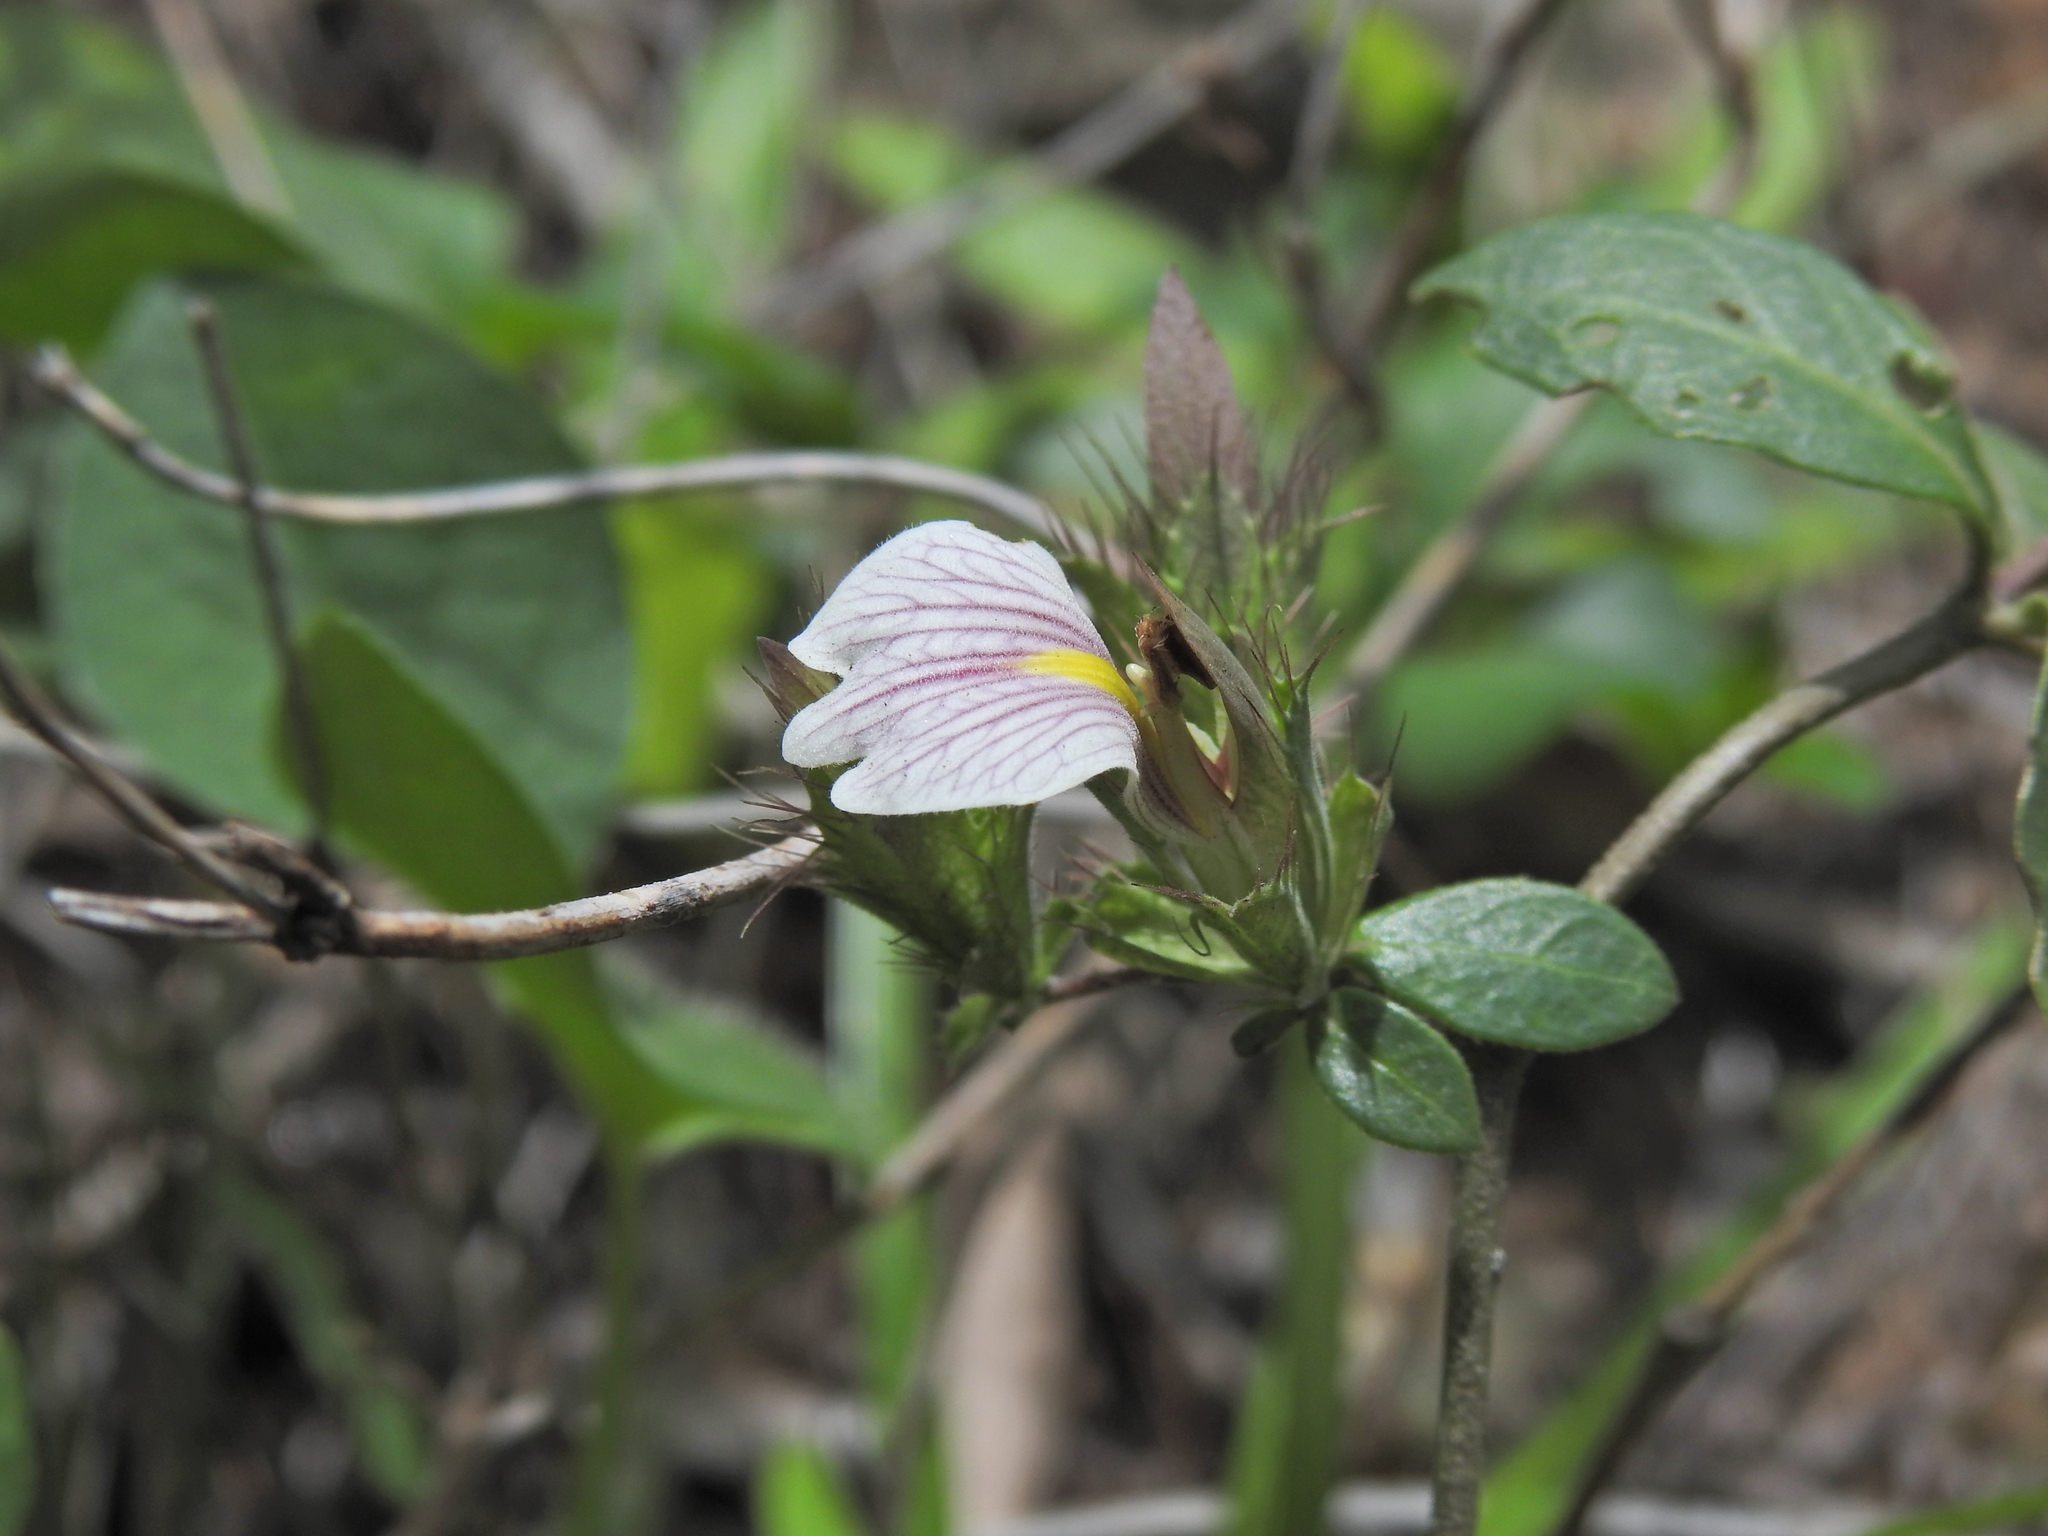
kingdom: Plantae
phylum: Tracheophyta
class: Magnoliopsida
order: Lamiales
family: Acanthaceae
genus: Blepharis
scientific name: Blepharis maderaspatensis
